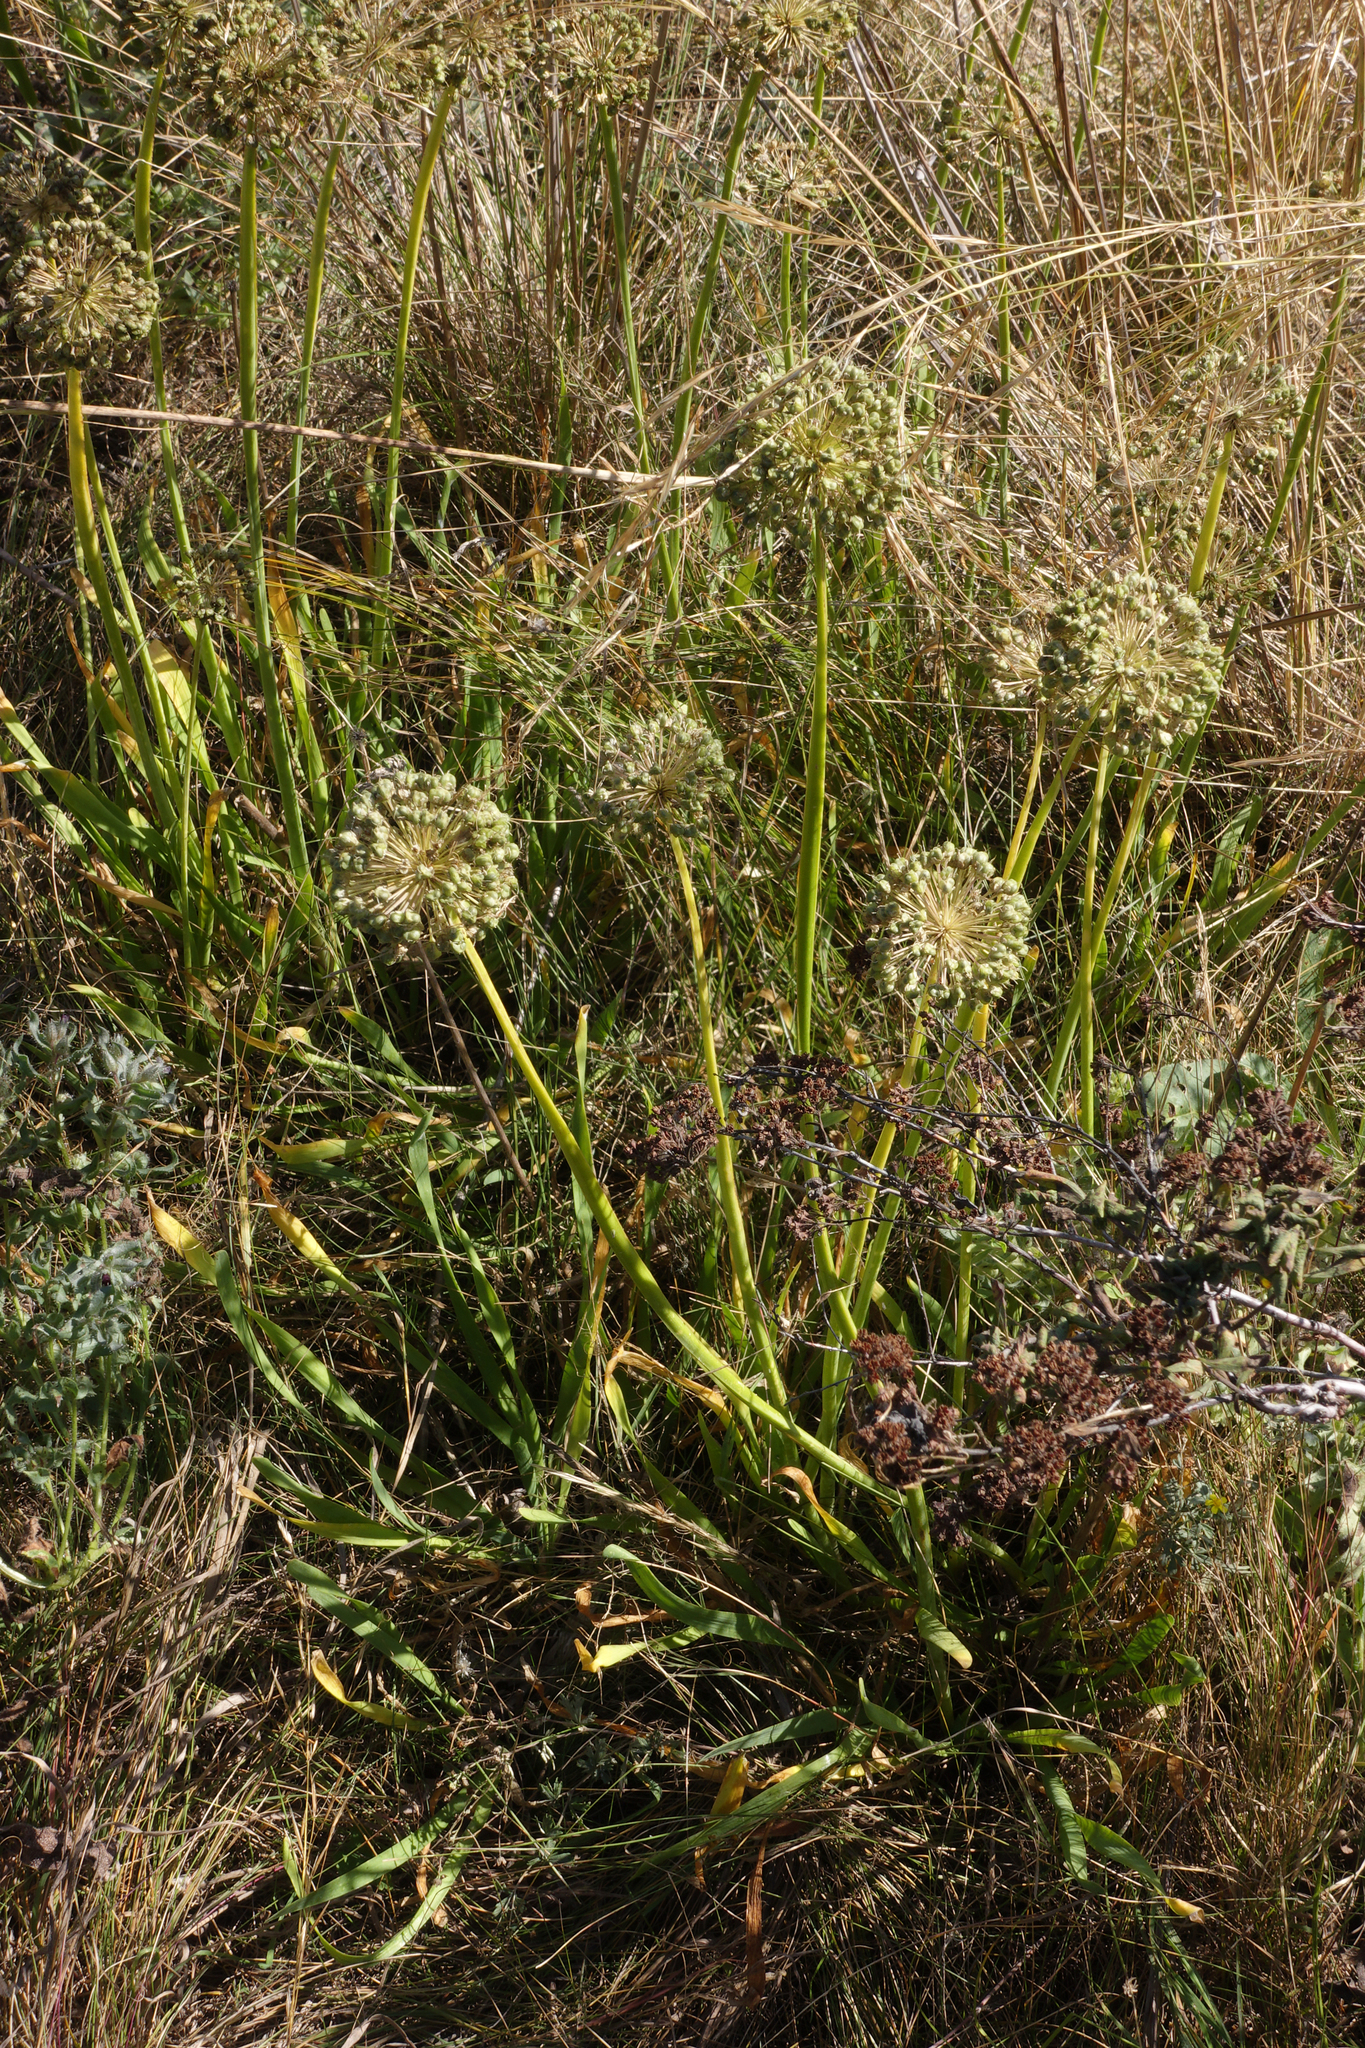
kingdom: Plantae
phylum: Tracheophyta
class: Liliopsida
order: Asparagales
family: Amaryllidaceae
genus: Allium
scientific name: Allium nutans
